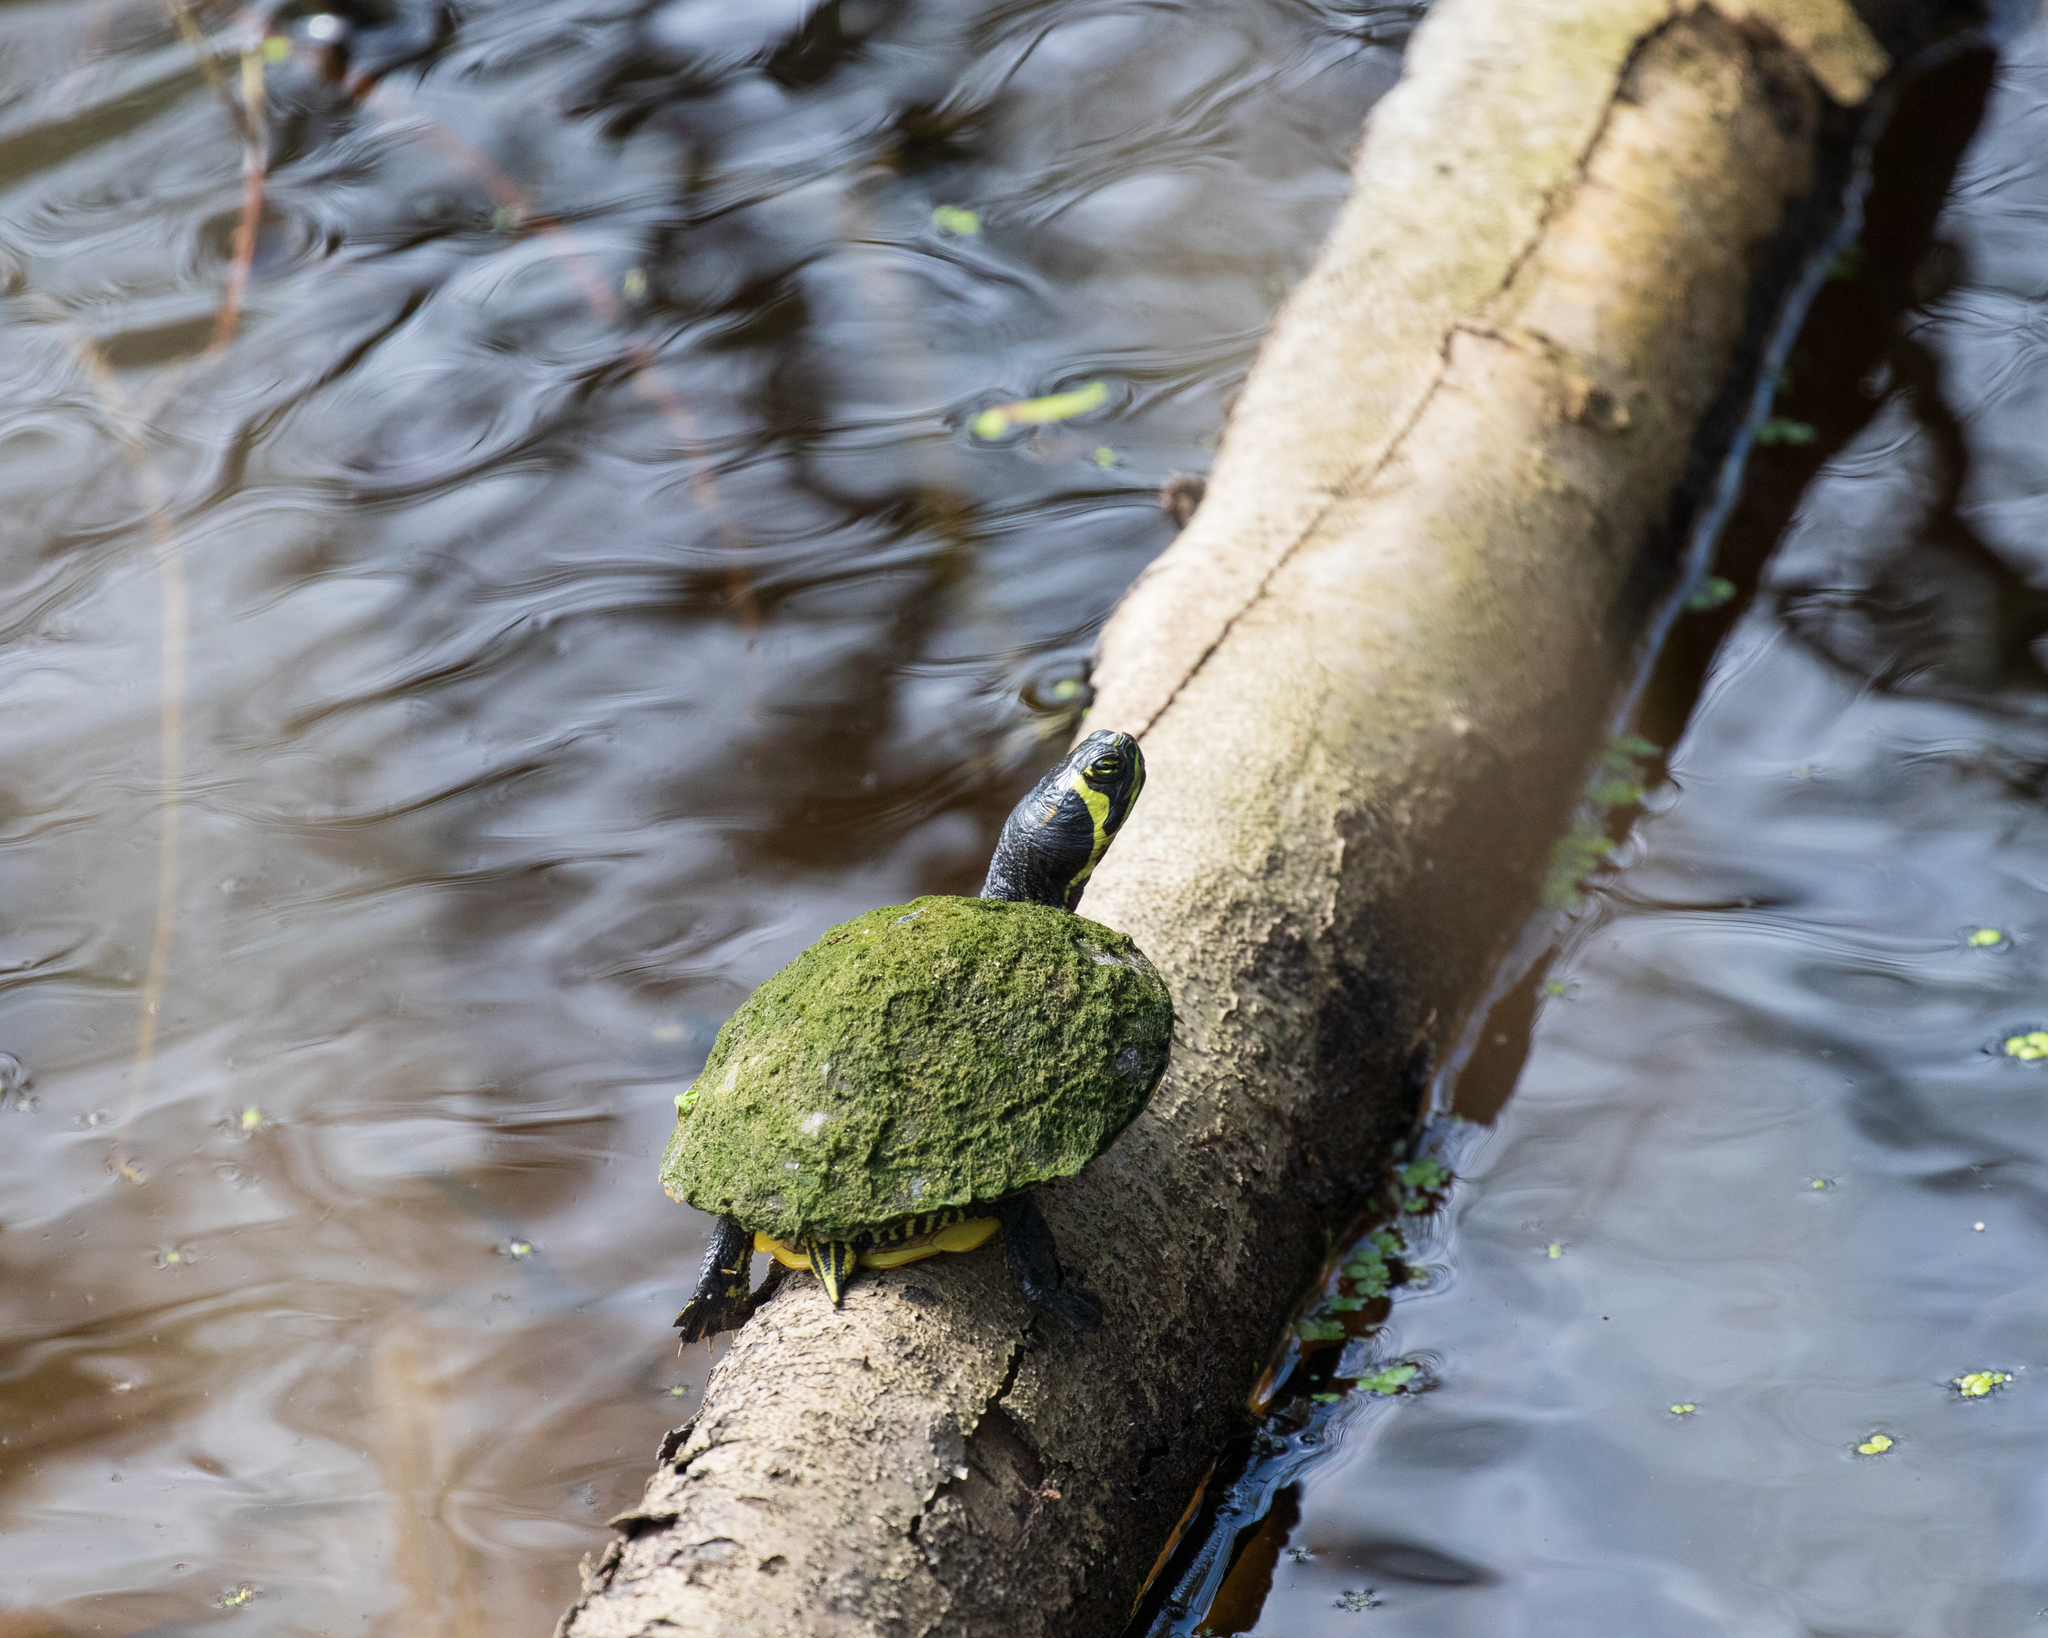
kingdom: Animalia
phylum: Chordata
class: Testudines
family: Emydidae
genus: Trachemys
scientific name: Trachemys scripta
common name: Slider
